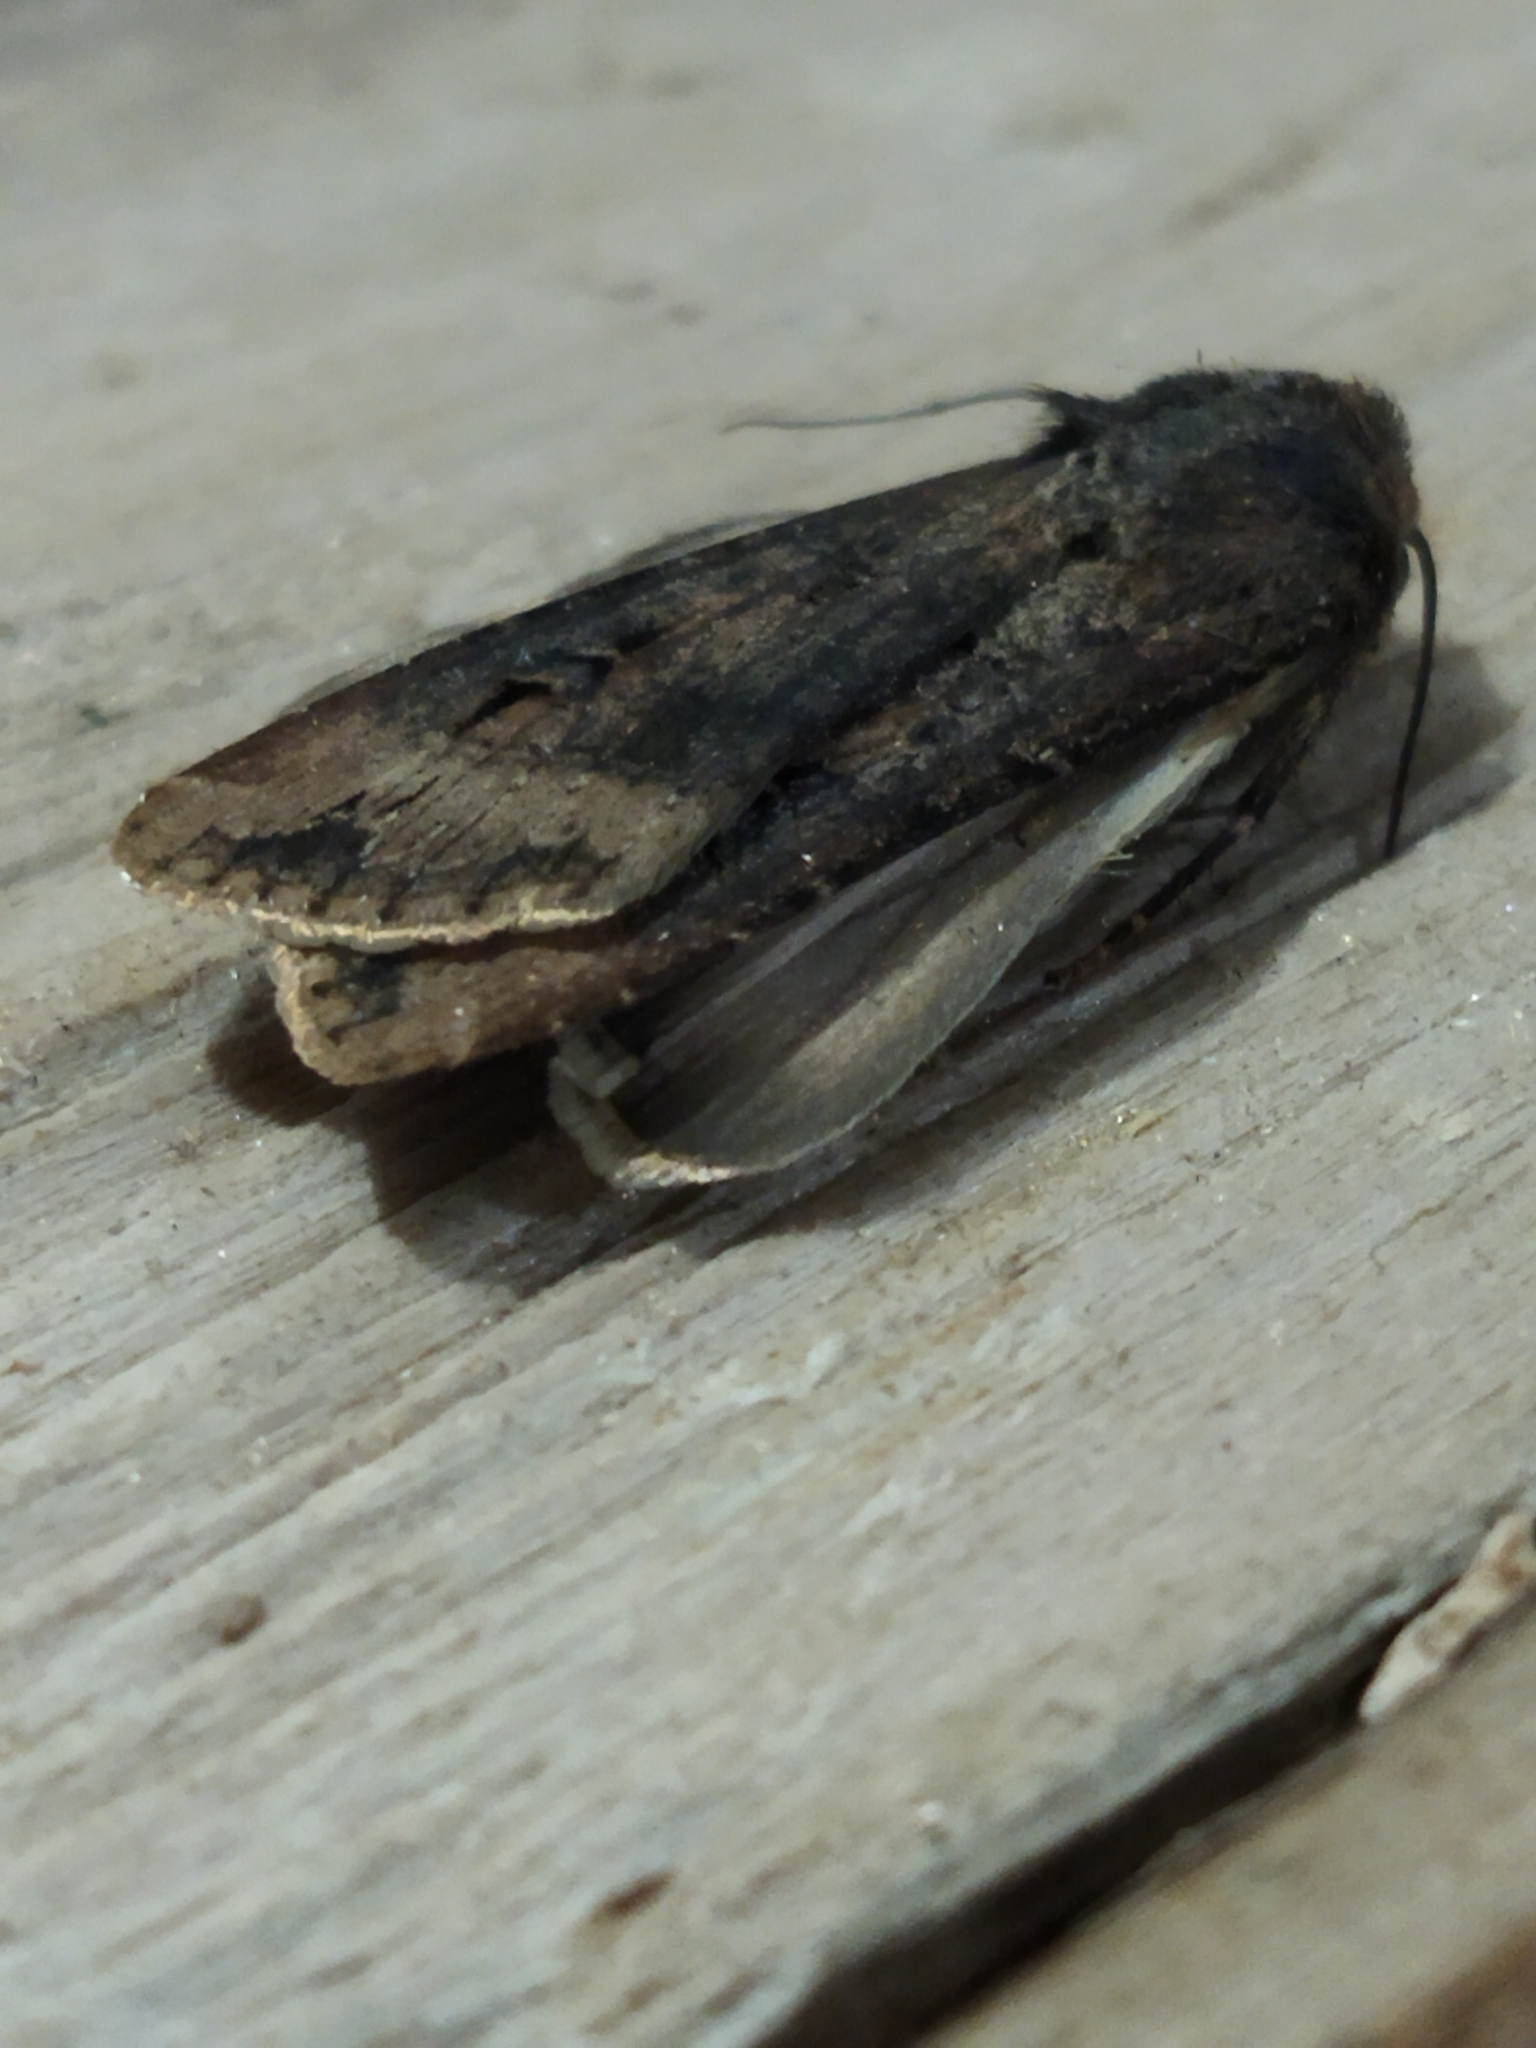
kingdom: Animalia
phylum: Arthropoda
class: Insecta
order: Lepidoptera
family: Noctuidae
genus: Agrotis
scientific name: Agrotis ipsilon
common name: Dark sword-grass
